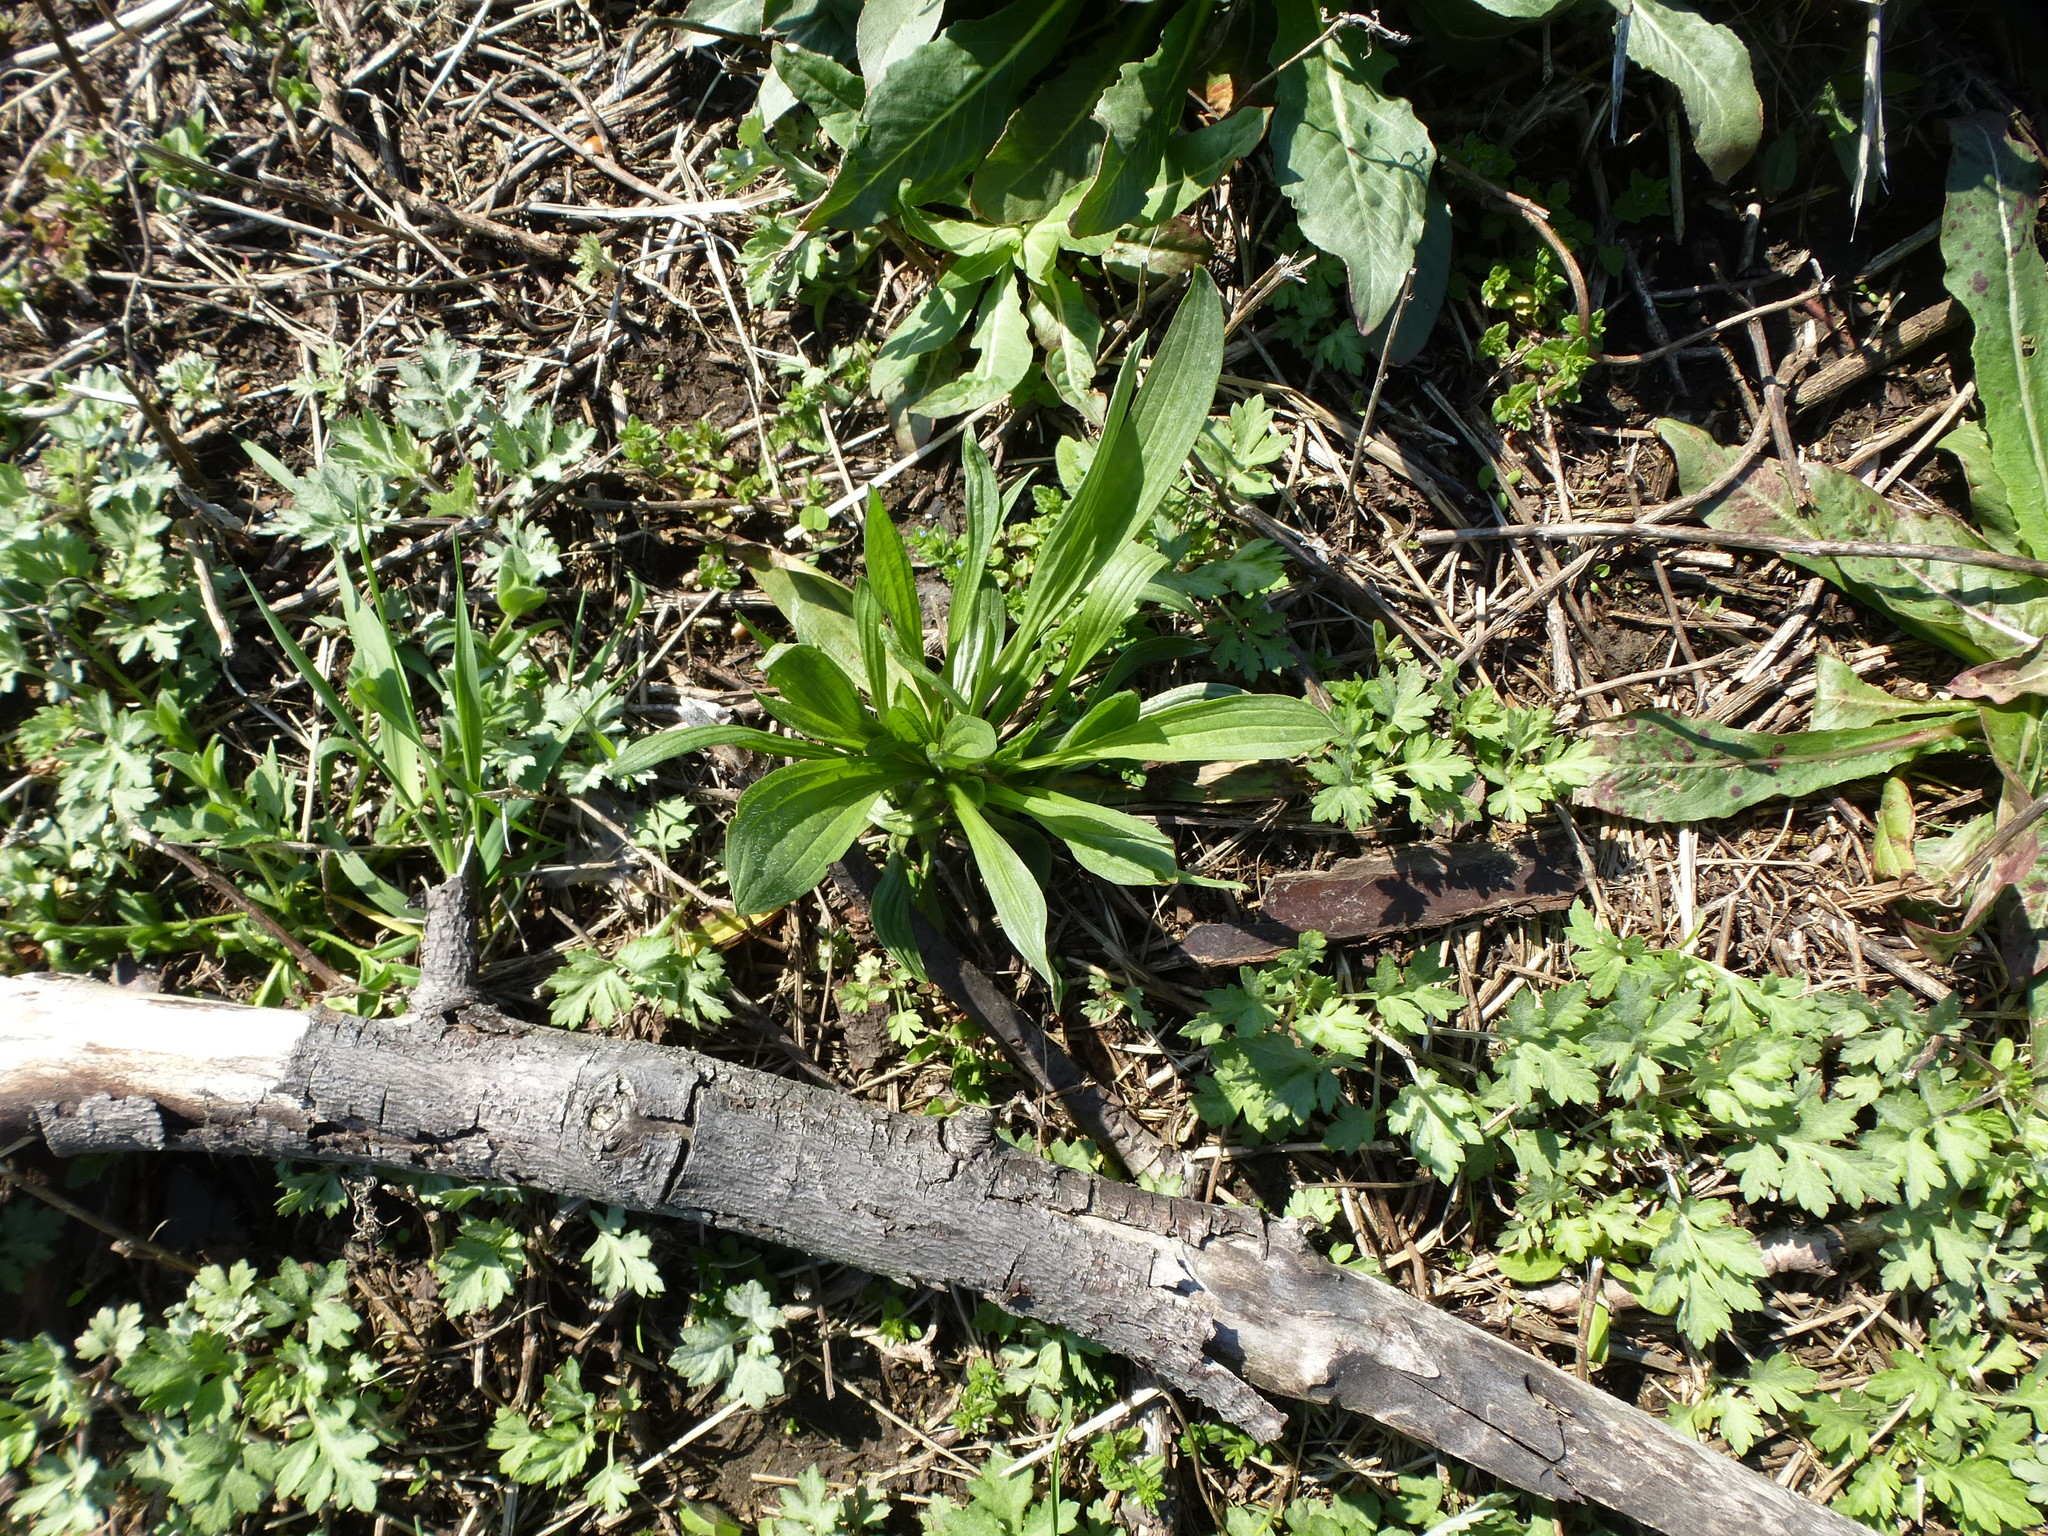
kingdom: Plantae
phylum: Tracheophyta
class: Magnoliopsida
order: Lamiales
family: Plantaginaceae
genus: Plantago
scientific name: Plantago lanceolata
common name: Ribwort plantain
